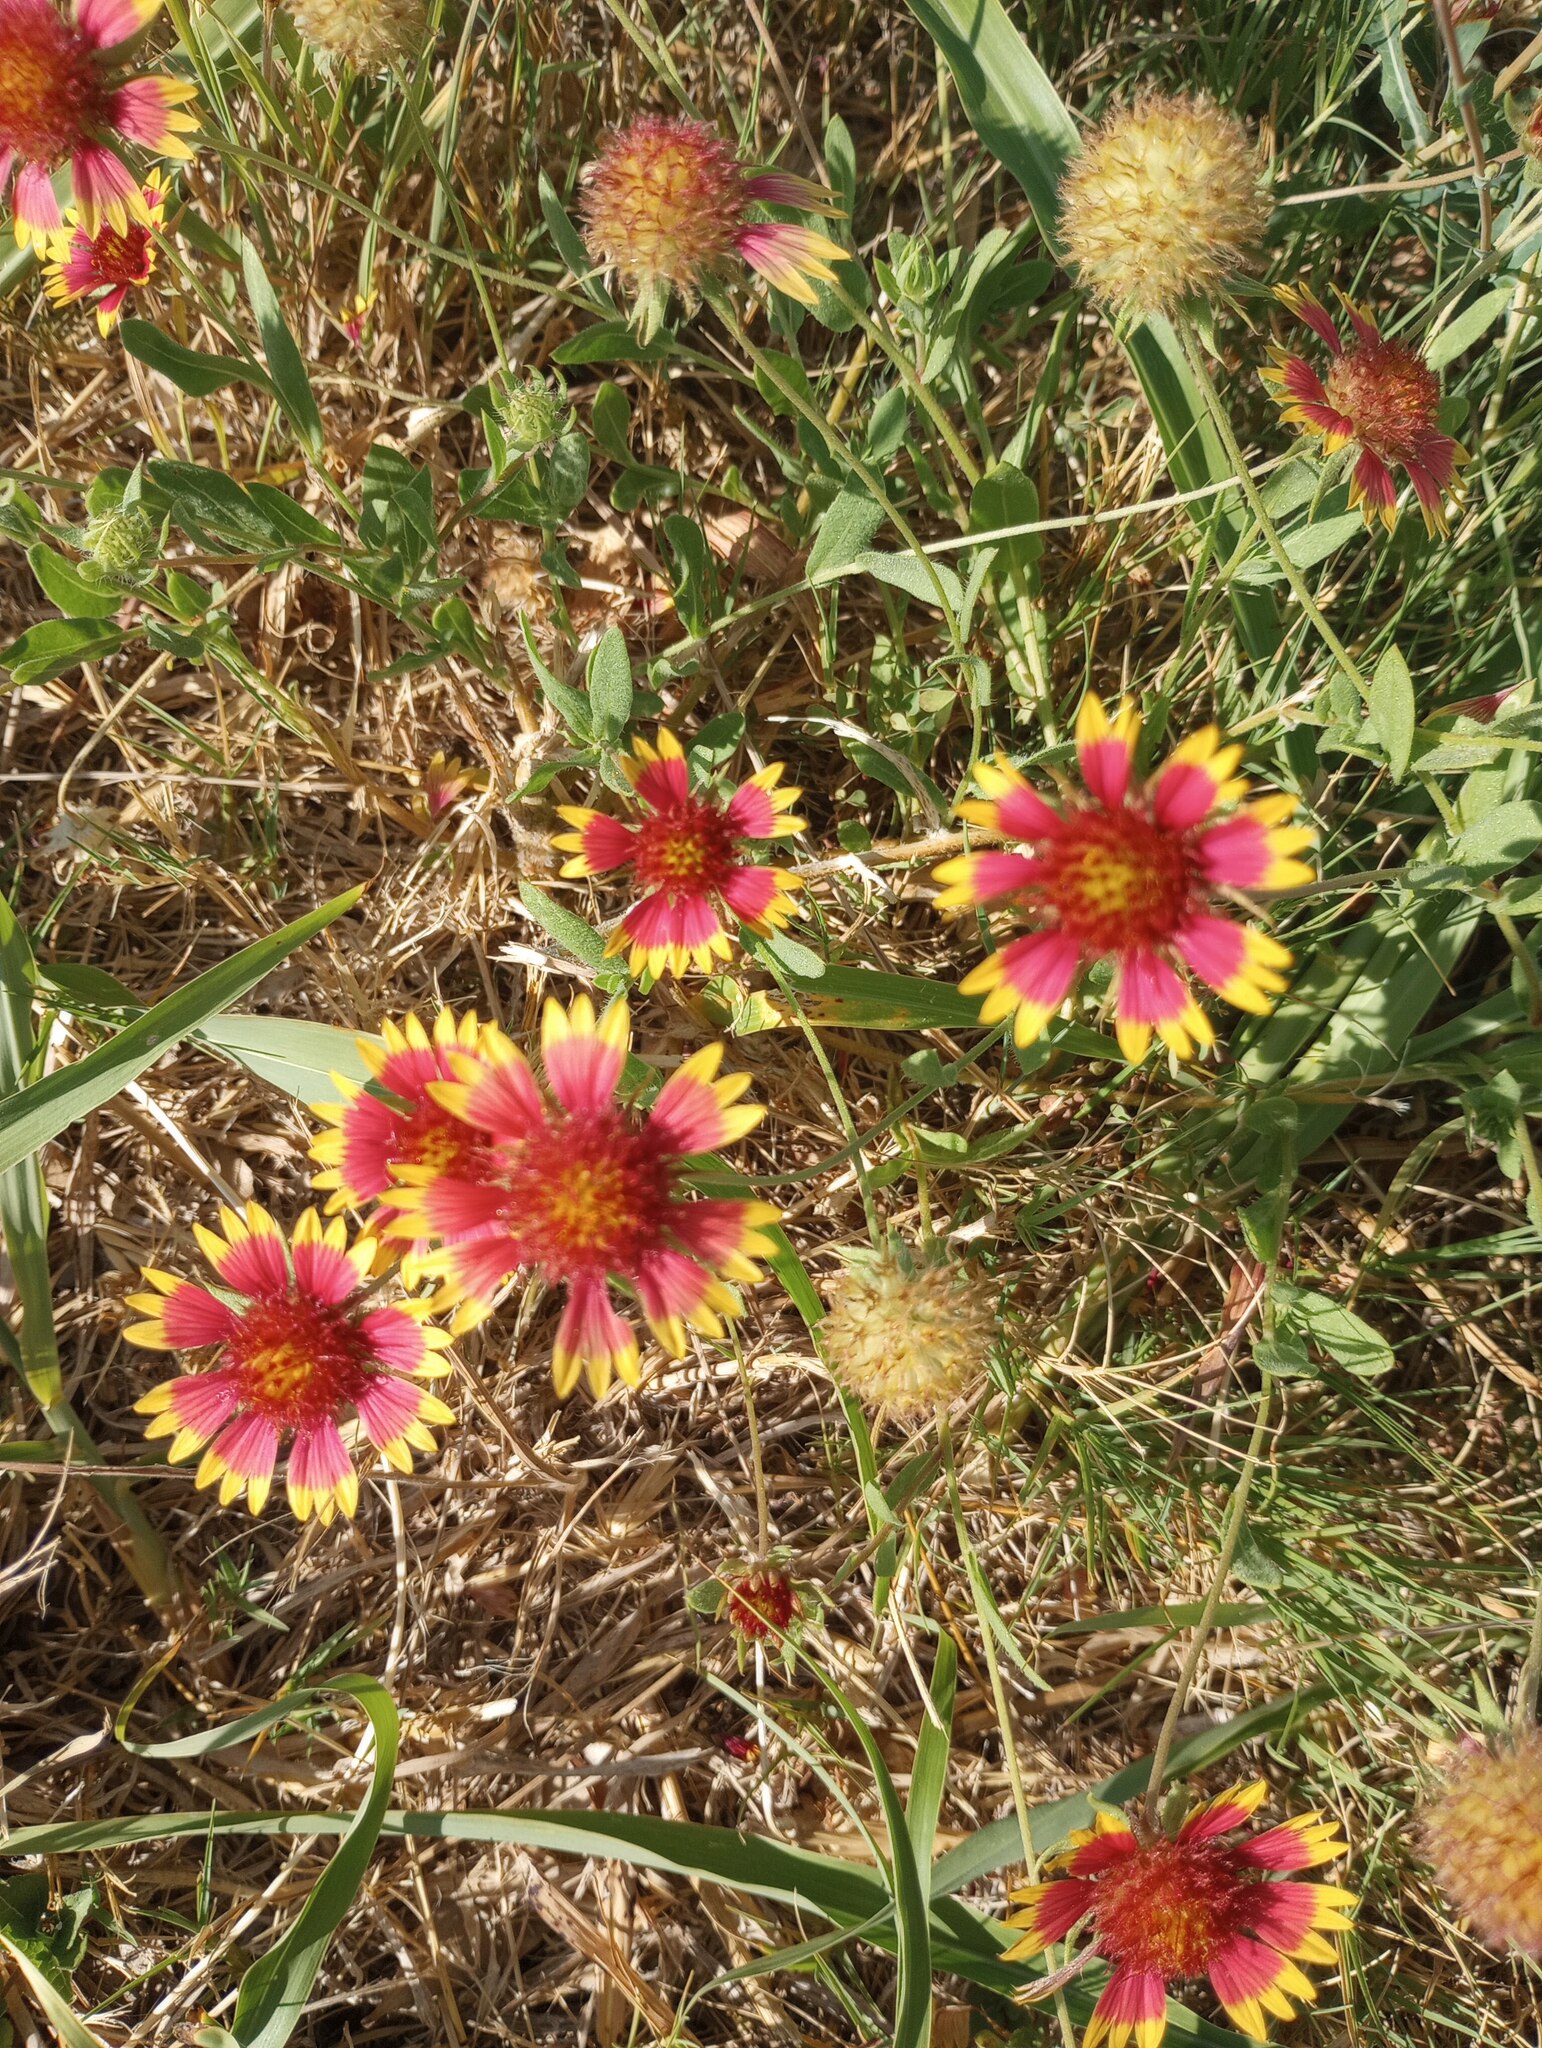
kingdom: Plantae
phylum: Tracheophyta
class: Magnoliopsida
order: Asterales
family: Asteraceae
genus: Gaillardia
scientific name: Gaillardia pulchella
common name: Firewheel
